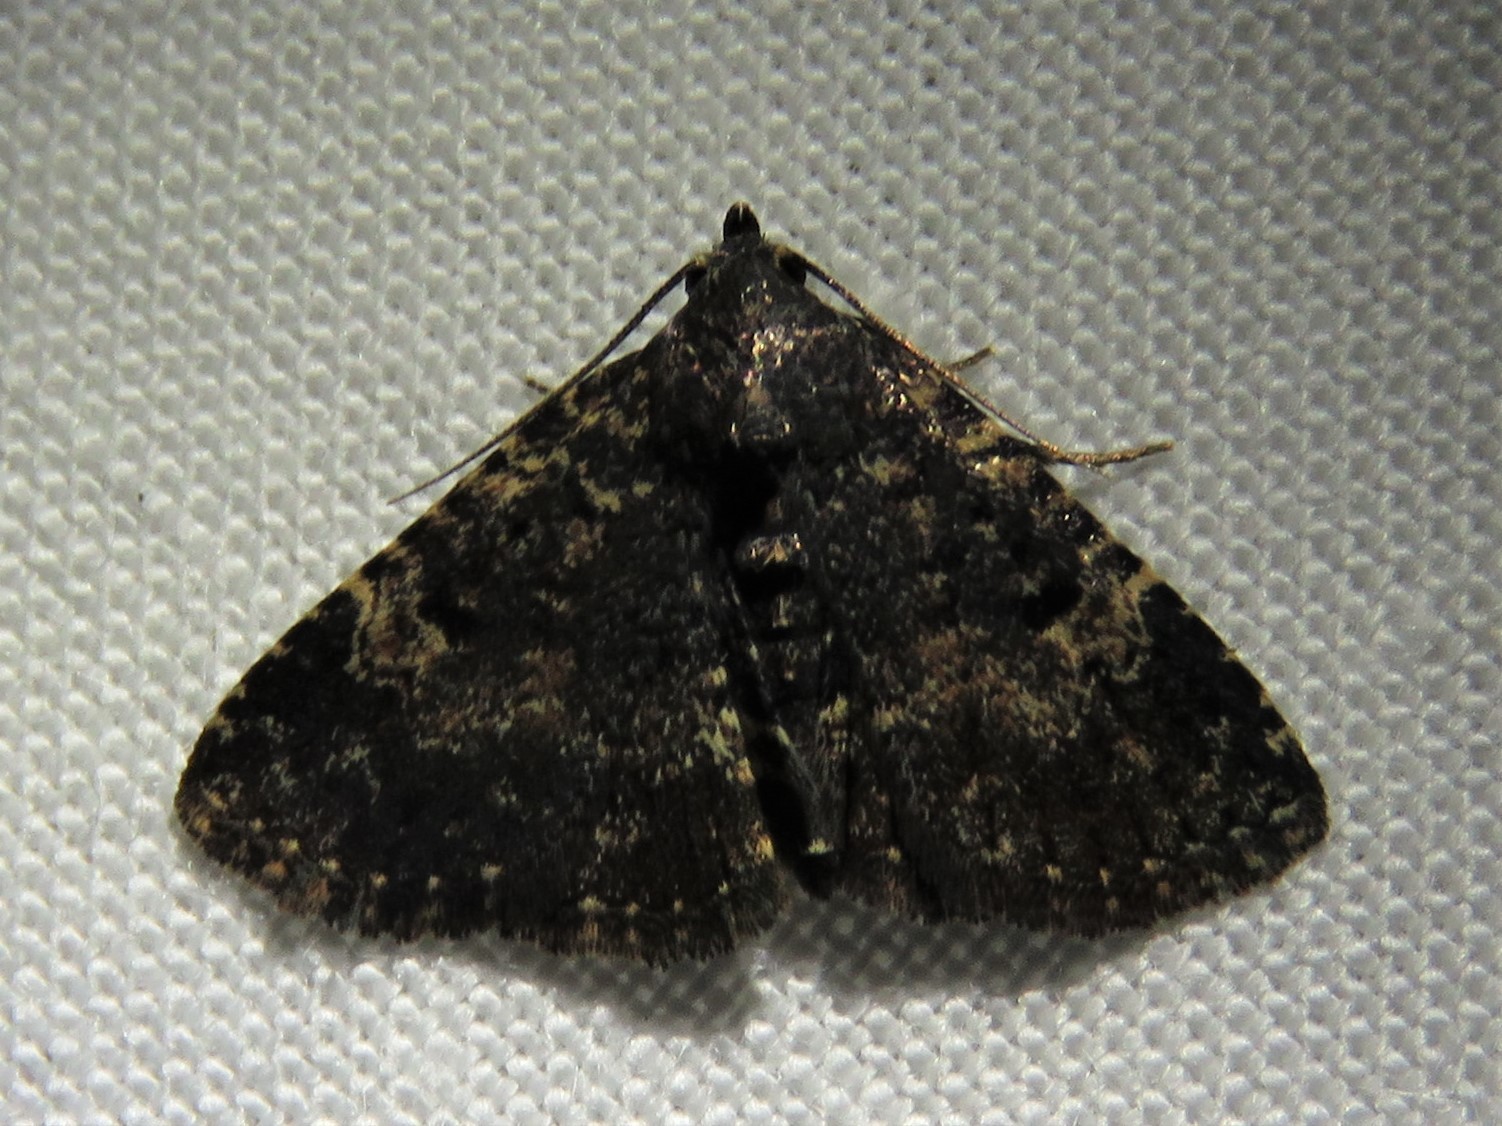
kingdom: Animalia
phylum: Arthropoda
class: Insecta
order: Lepidoptera
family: Erebidae
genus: Metalectra
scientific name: Metalectra diabolica
